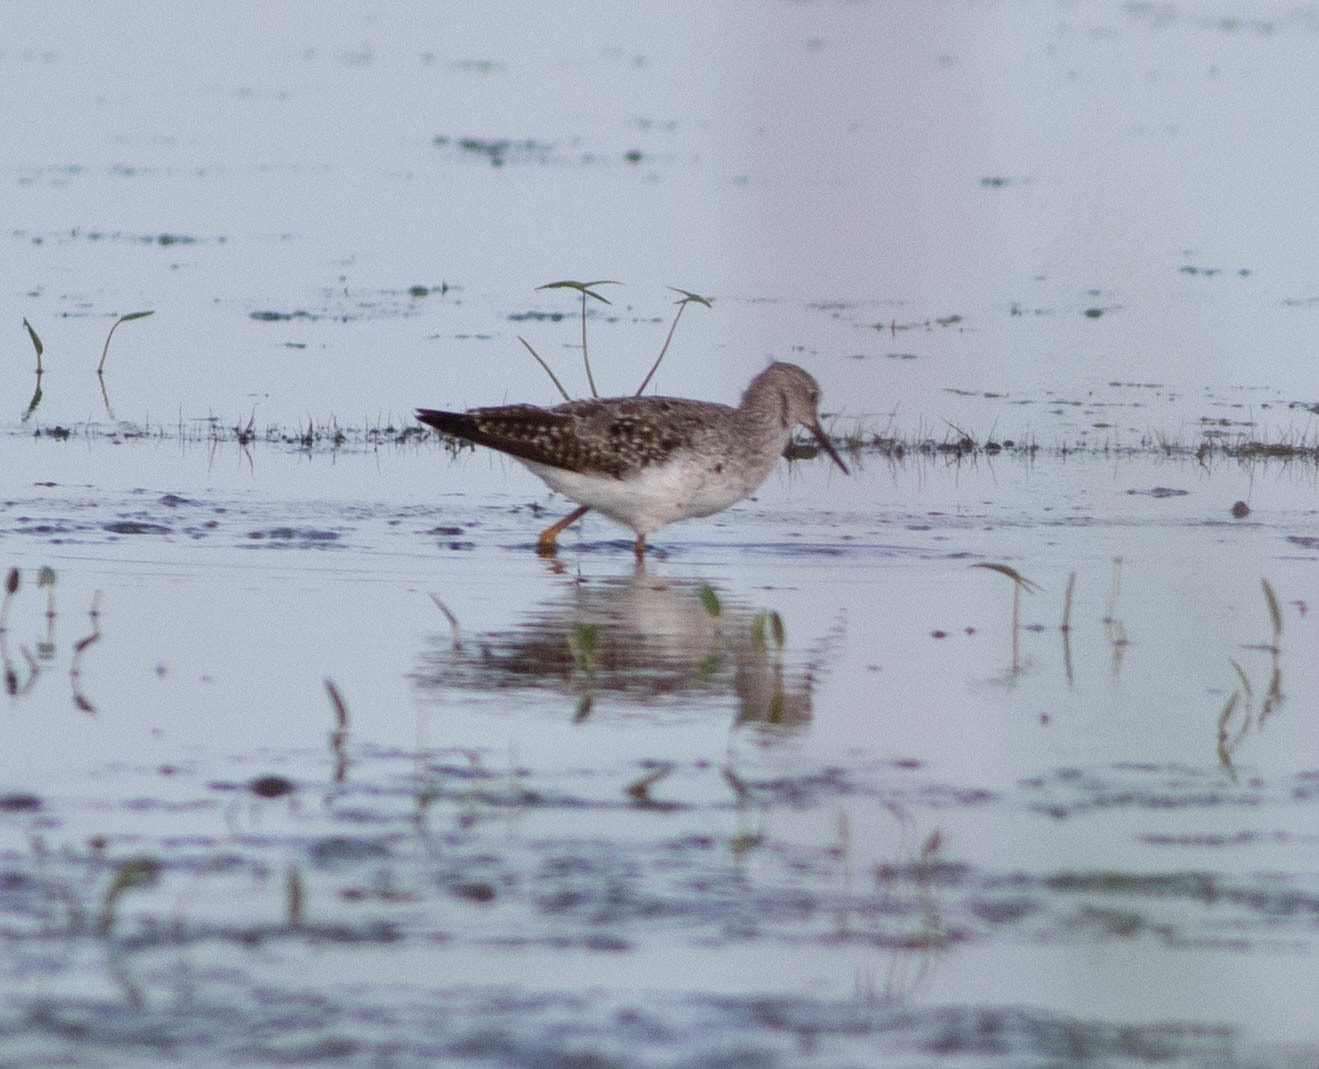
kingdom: Animalia
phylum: Chordata
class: Aves
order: Charadriiformes
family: Scolopacidae
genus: Tringa
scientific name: Tringa flavipes
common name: Lesser yellowlegs
